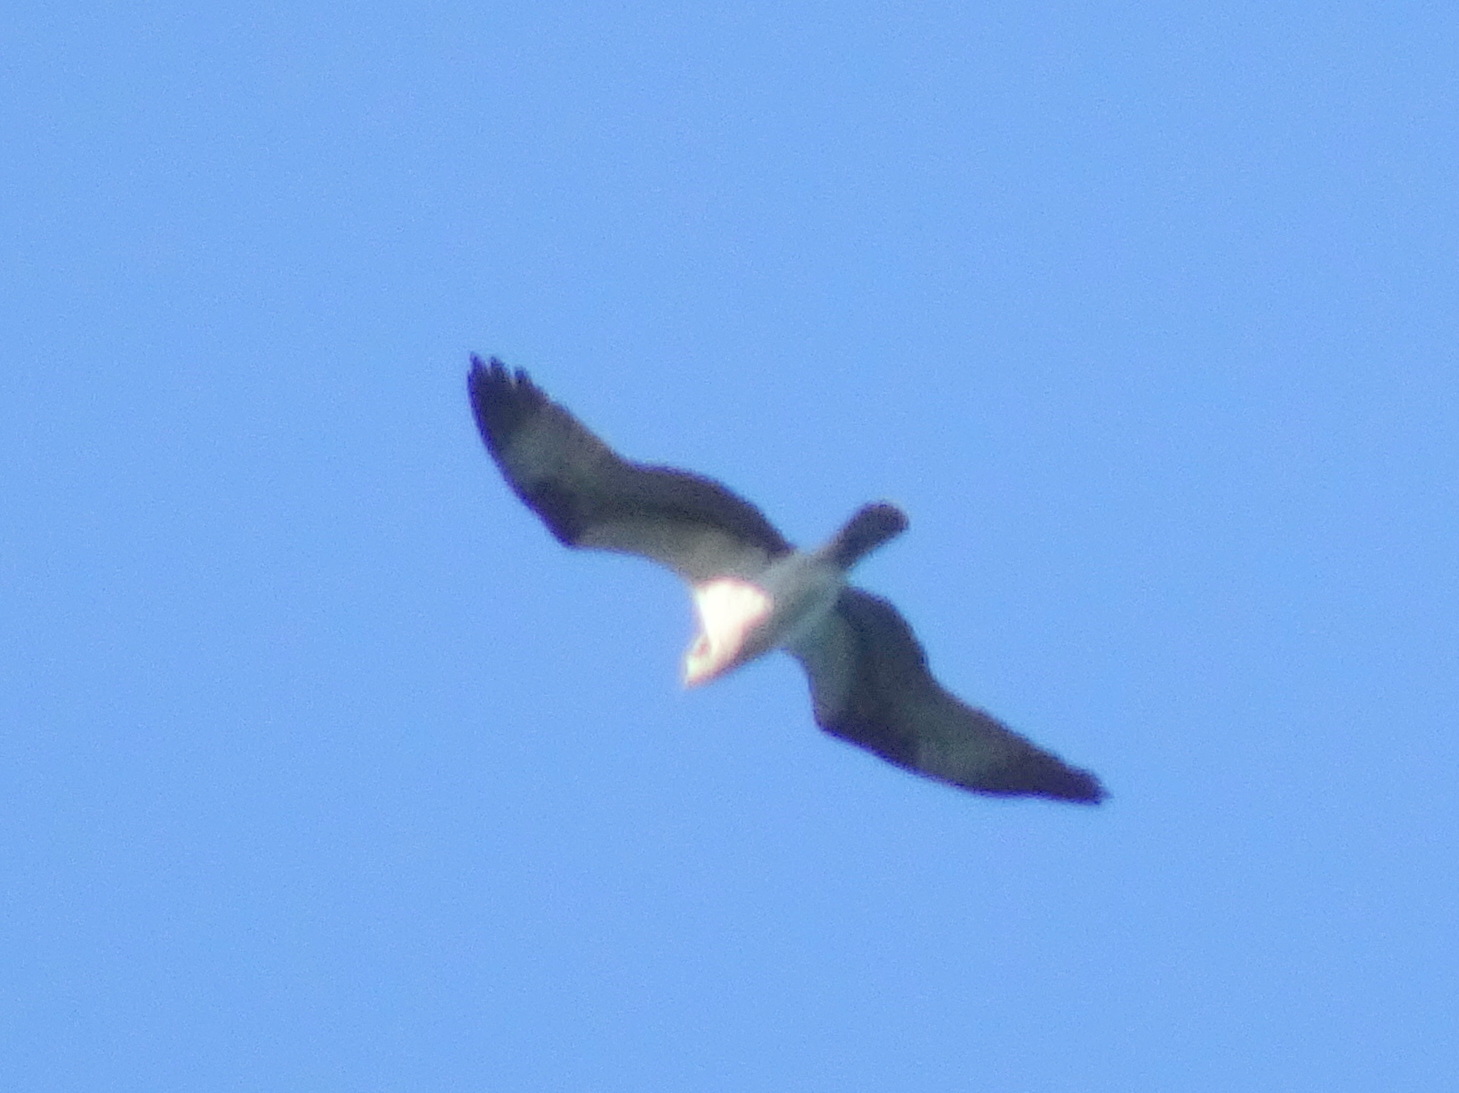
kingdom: Animalia
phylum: Chordata
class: Aves
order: Accipitriformes
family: Pandionidae
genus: Pandion
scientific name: Pandion haliaetus
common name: Osprey
